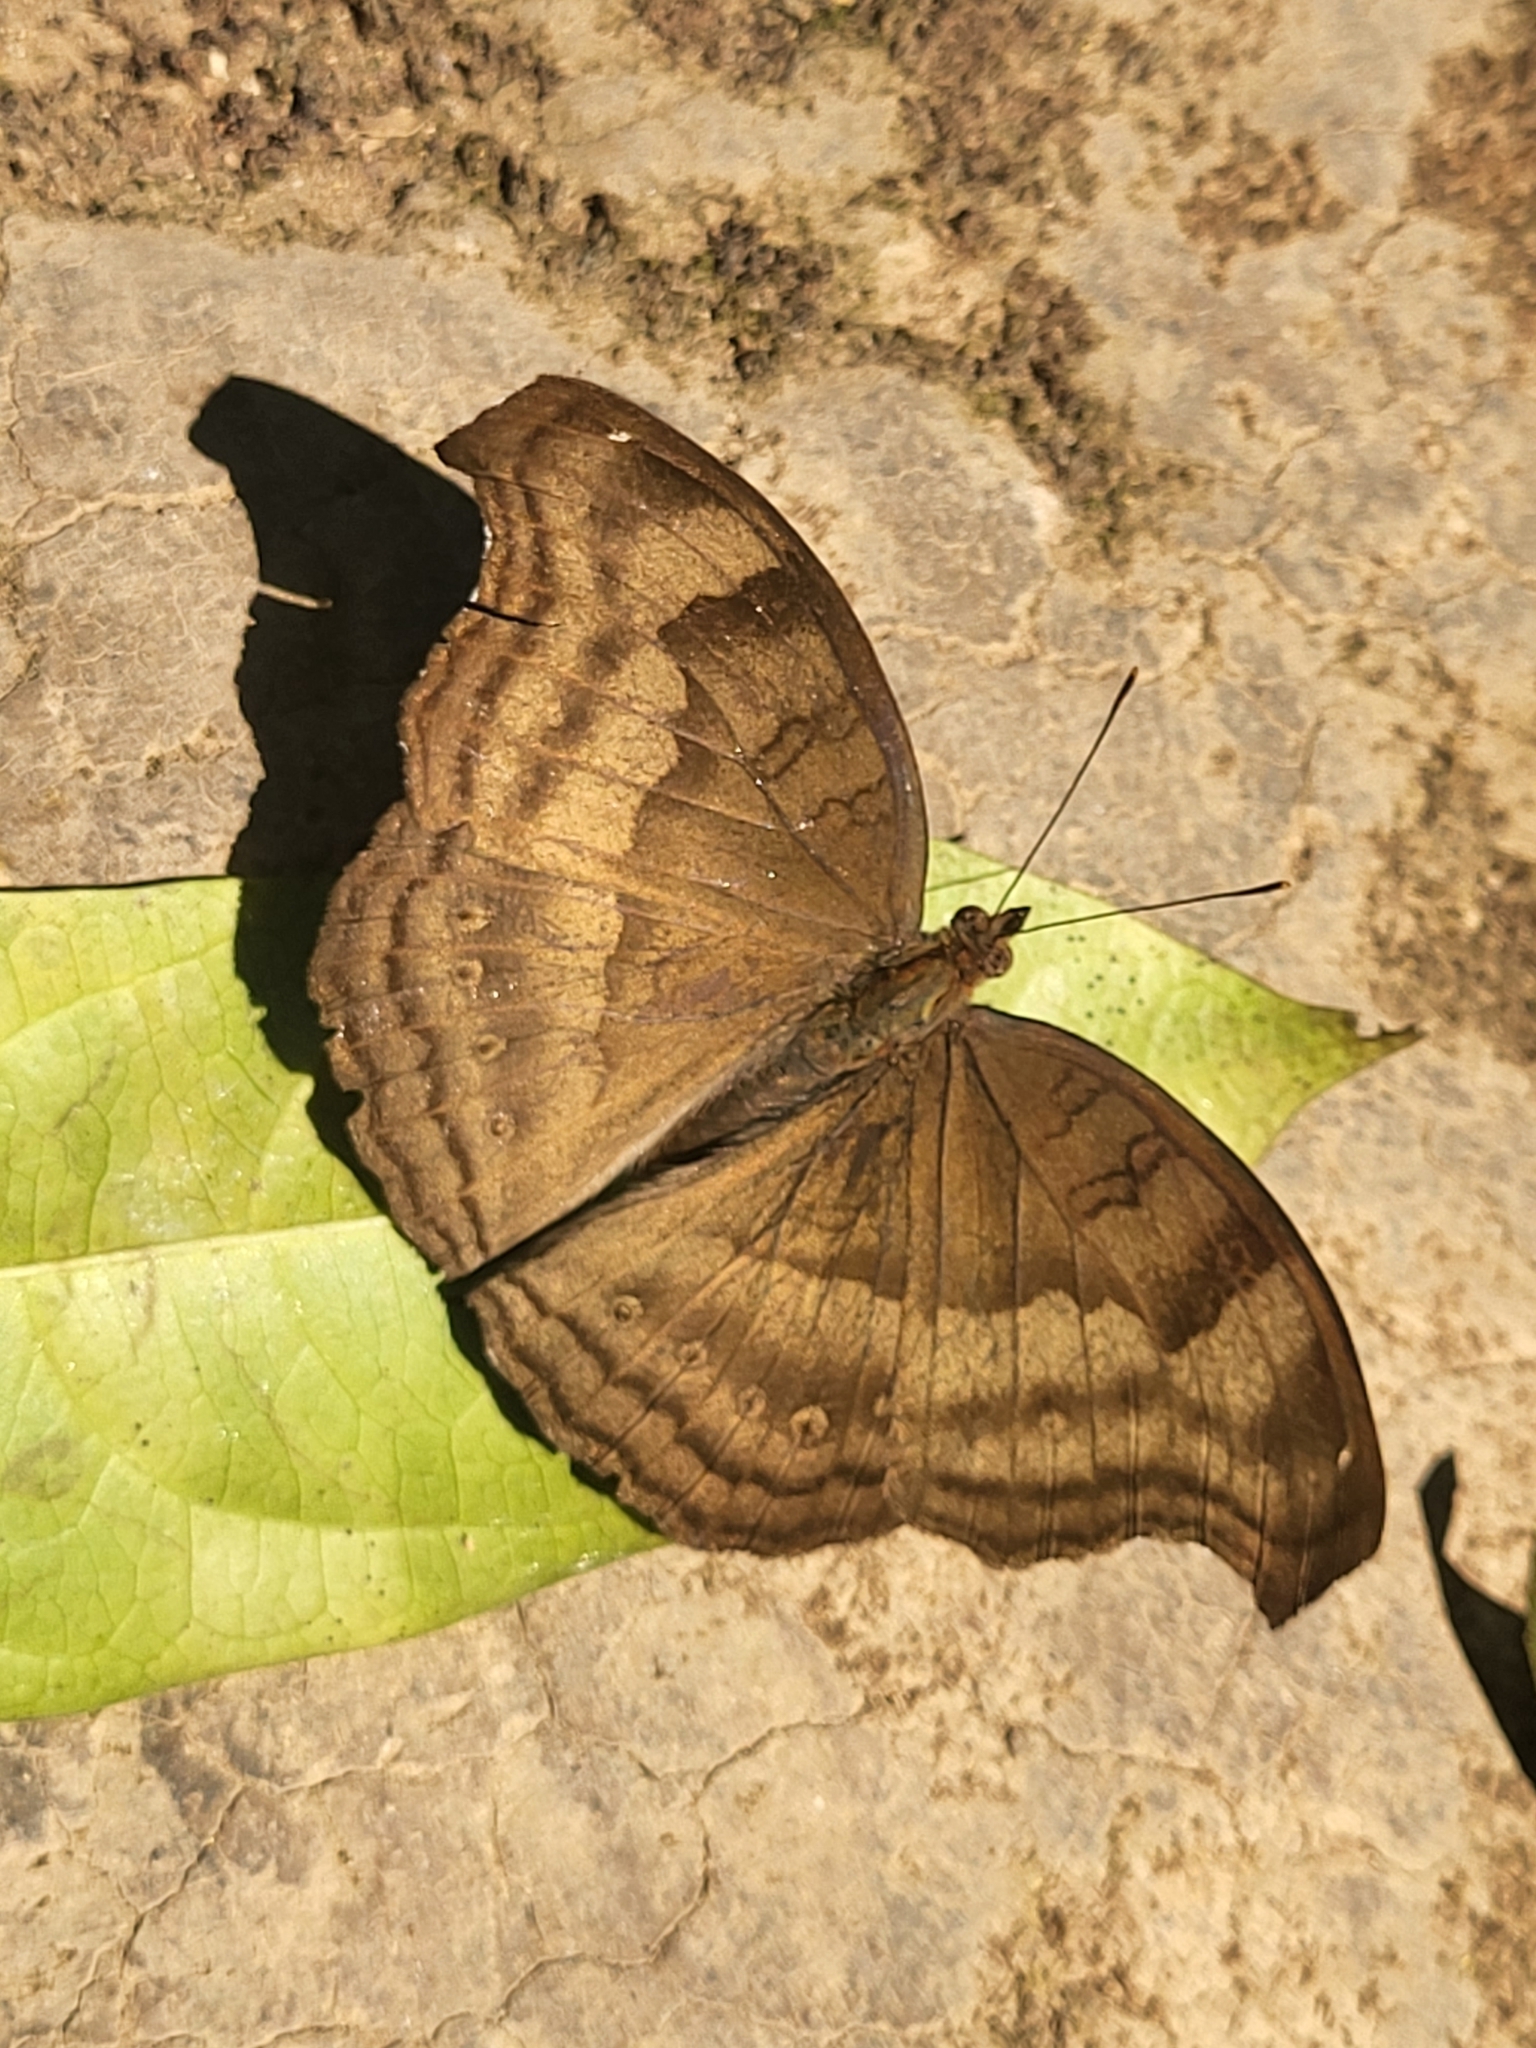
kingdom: Animalia
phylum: Arthropoda
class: Insecta
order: Lepidoptera
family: Nymphalidae
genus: Junonia
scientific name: Junonia iphita
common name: Chocolate pansy
